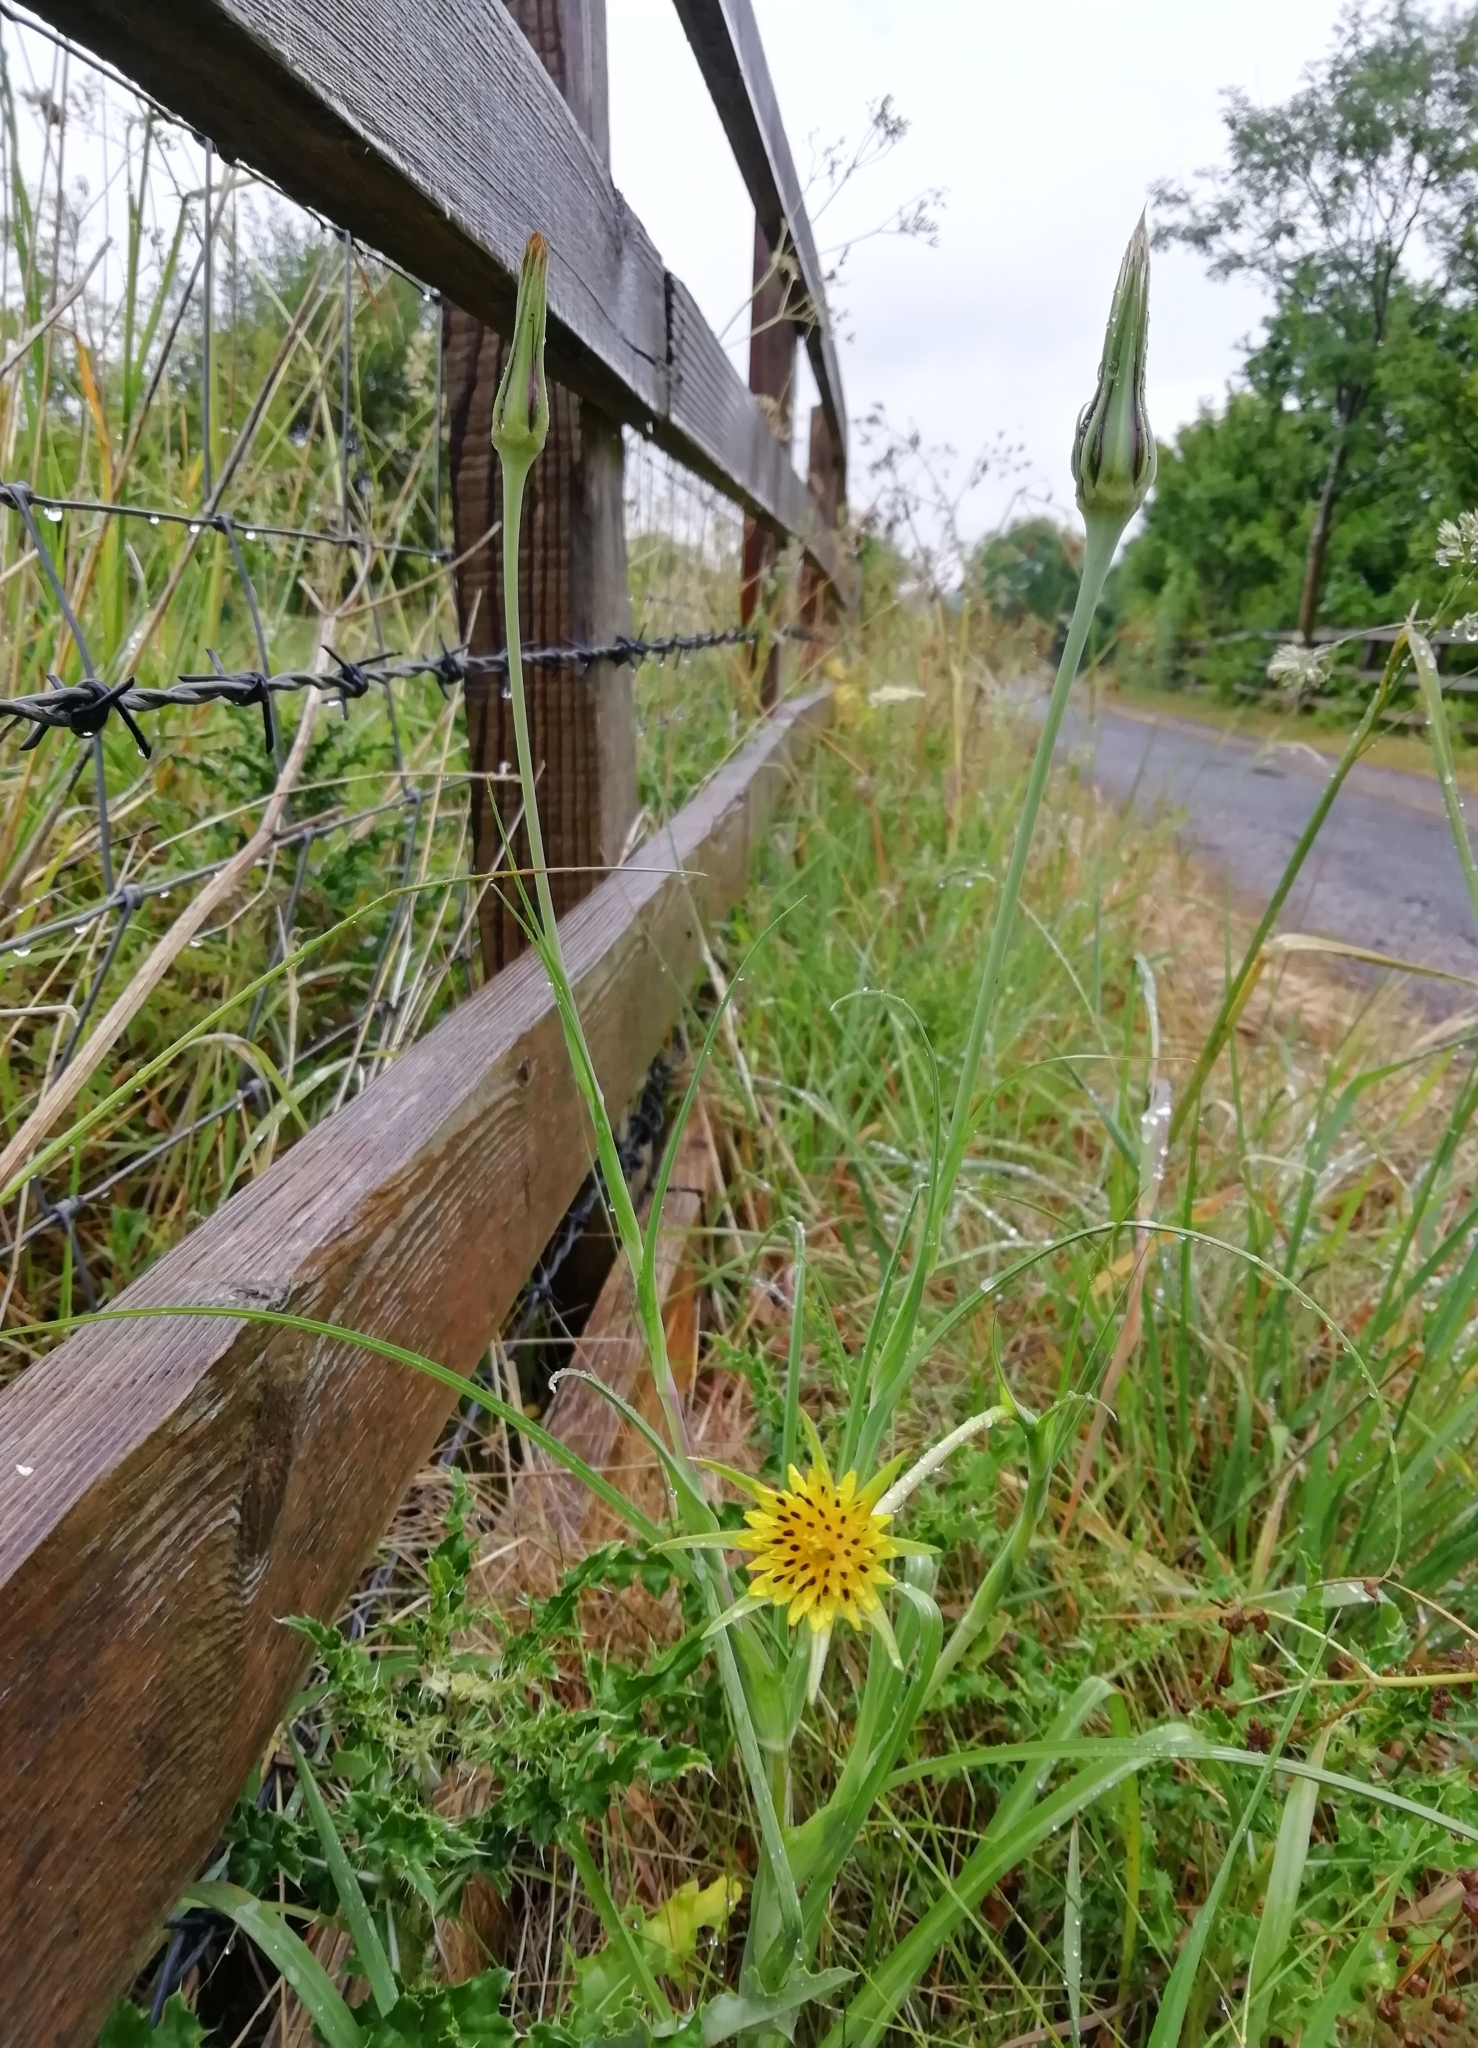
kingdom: Plantae
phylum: Tracheophyta
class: Magnoliopsida
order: Asterales
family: Asteraceae
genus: Tragopogon
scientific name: Tragopogon pratensis
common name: Goat's-beard
